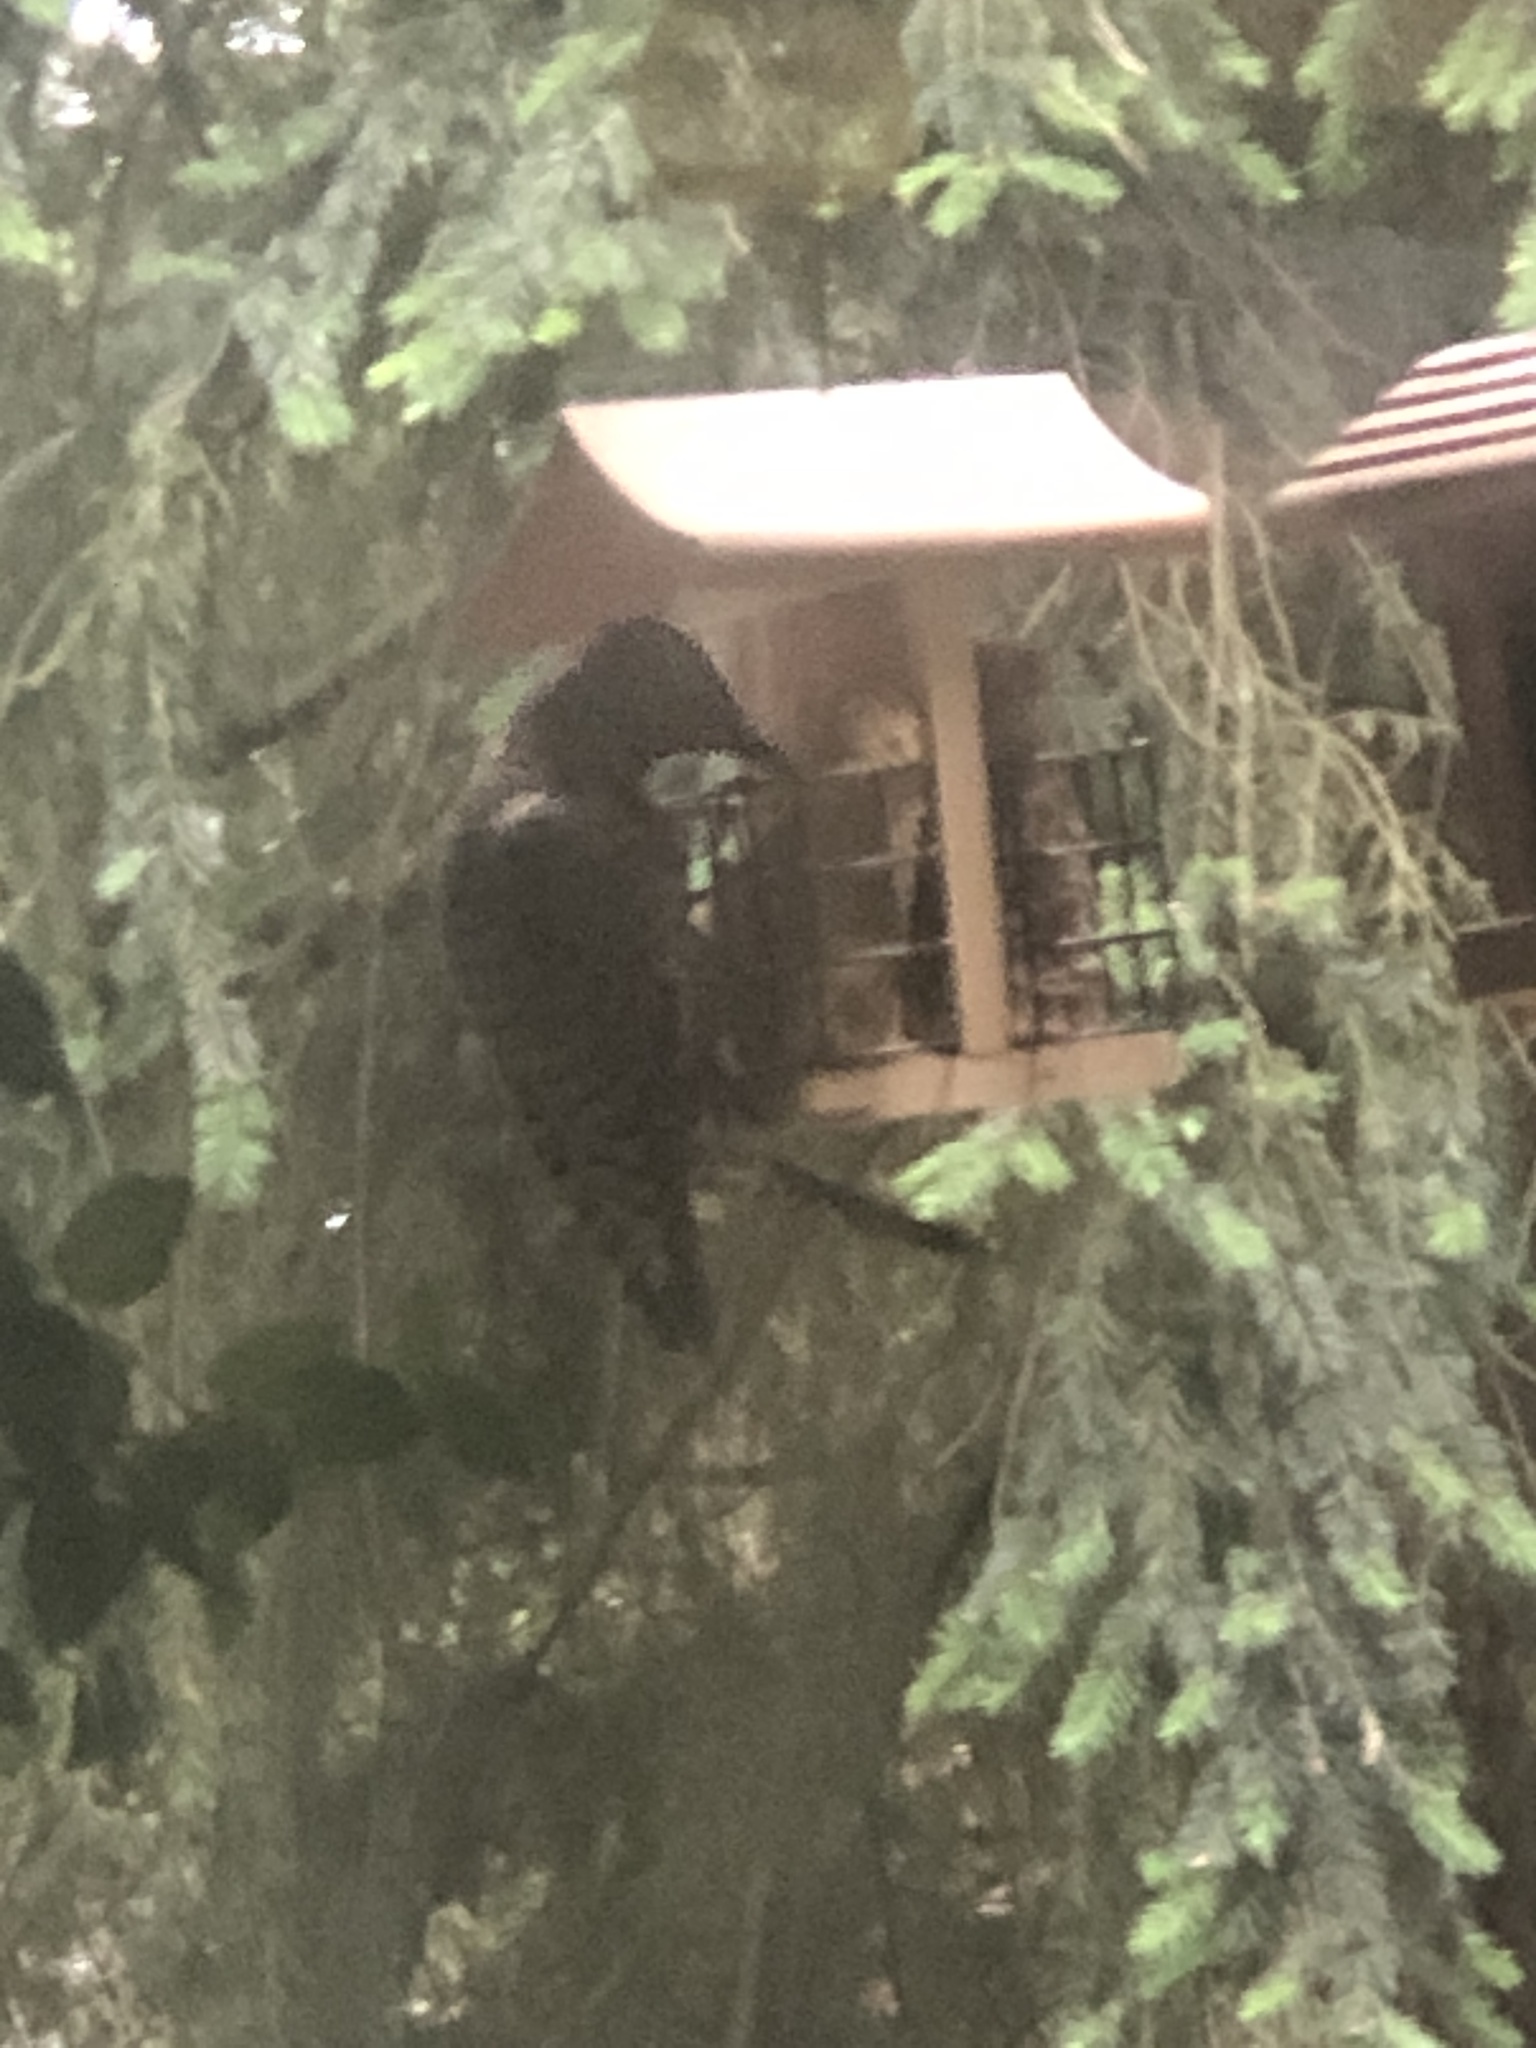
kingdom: Animalia
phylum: Chordata
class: Aves
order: Piciformes
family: Picidae
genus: Colaptes
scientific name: Colaptes auratus
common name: Northern flicker
